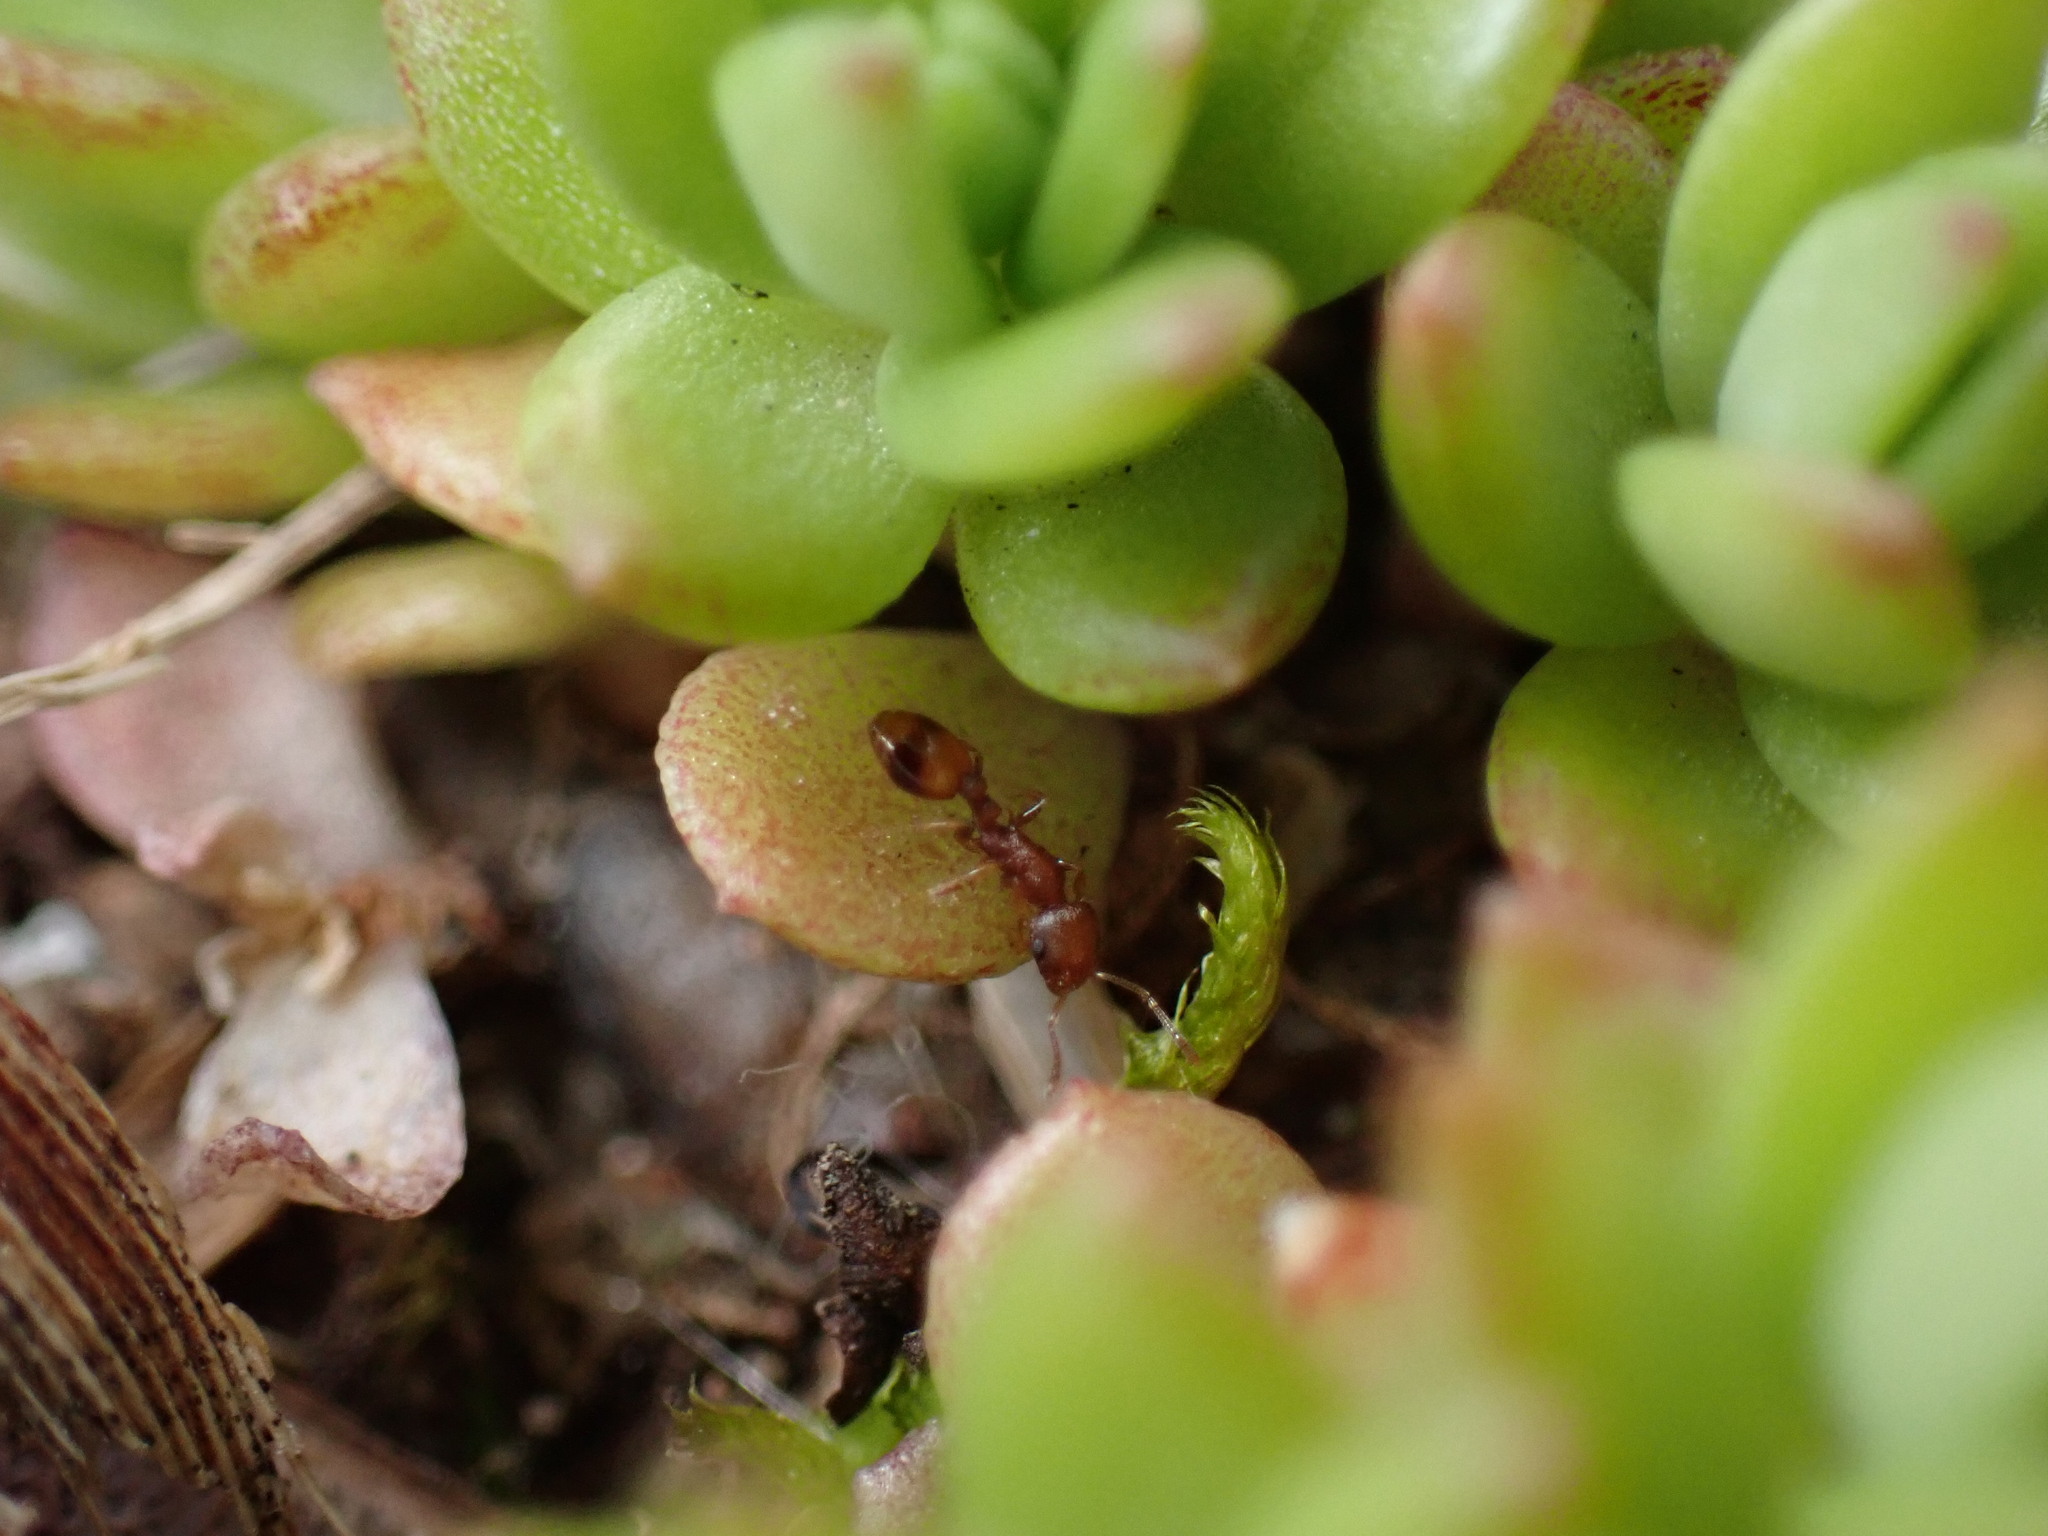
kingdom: Animalia
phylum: Arthropoda
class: Insecta
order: Hymenoptera
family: Formicidae
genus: Temnothorax
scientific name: Temnothorax curvispinosus
